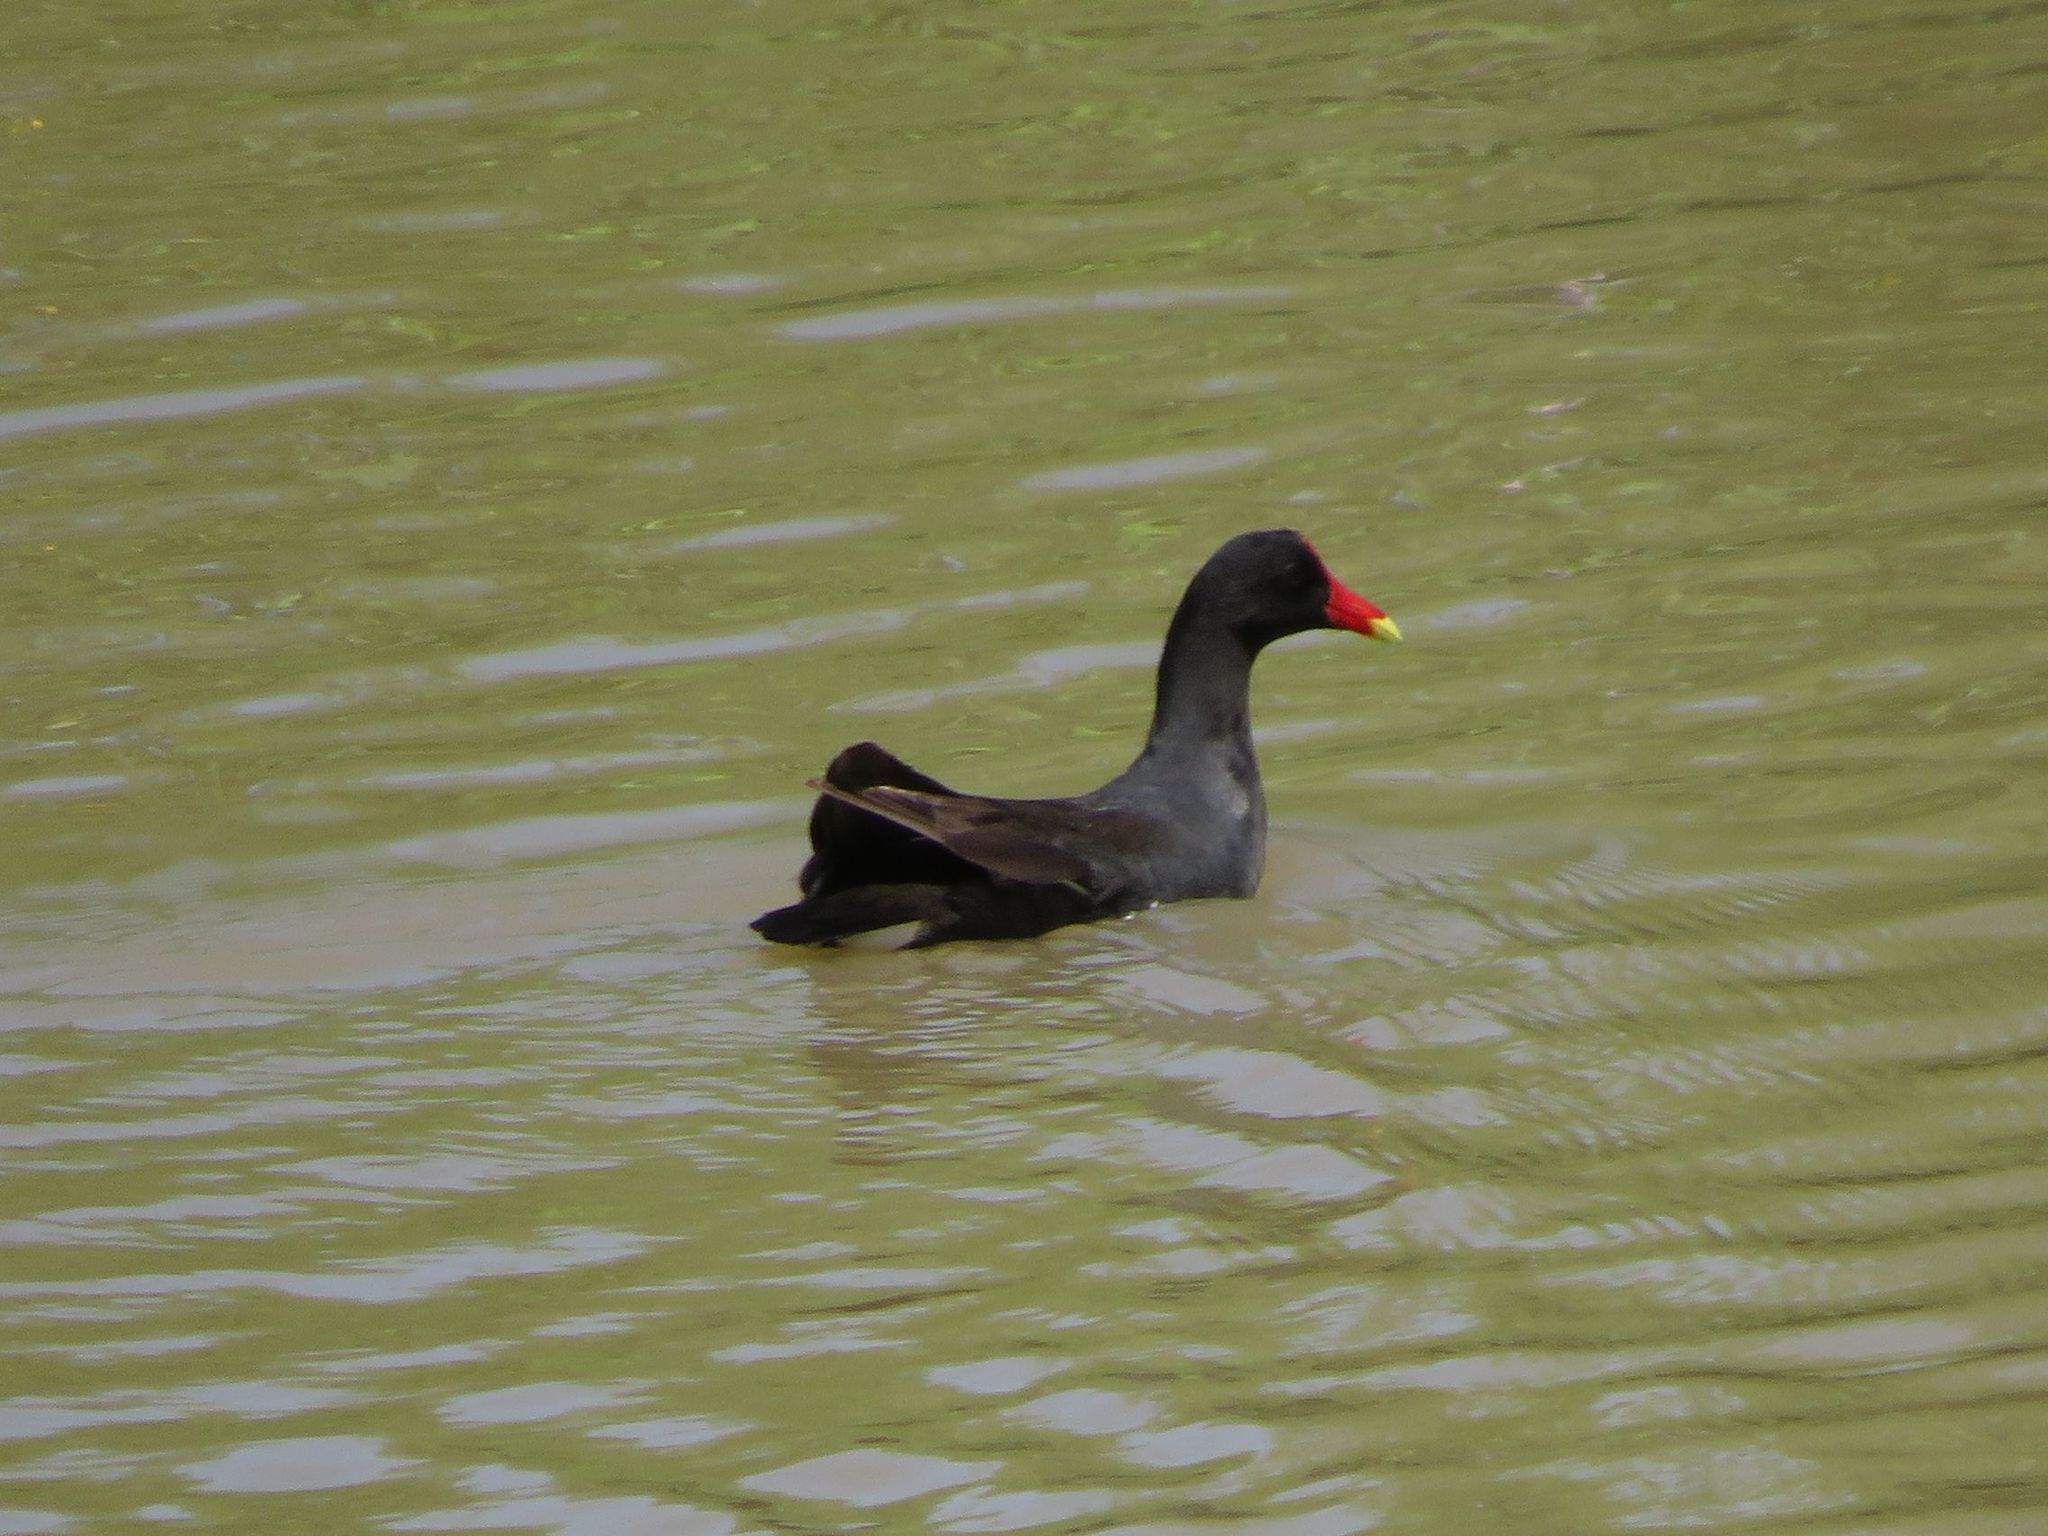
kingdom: Animalia
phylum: Chordata
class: Aves
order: Gruiformes
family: Rallidae
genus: Gallinula
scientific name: Gallinula chloropus
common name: Common moorhen
